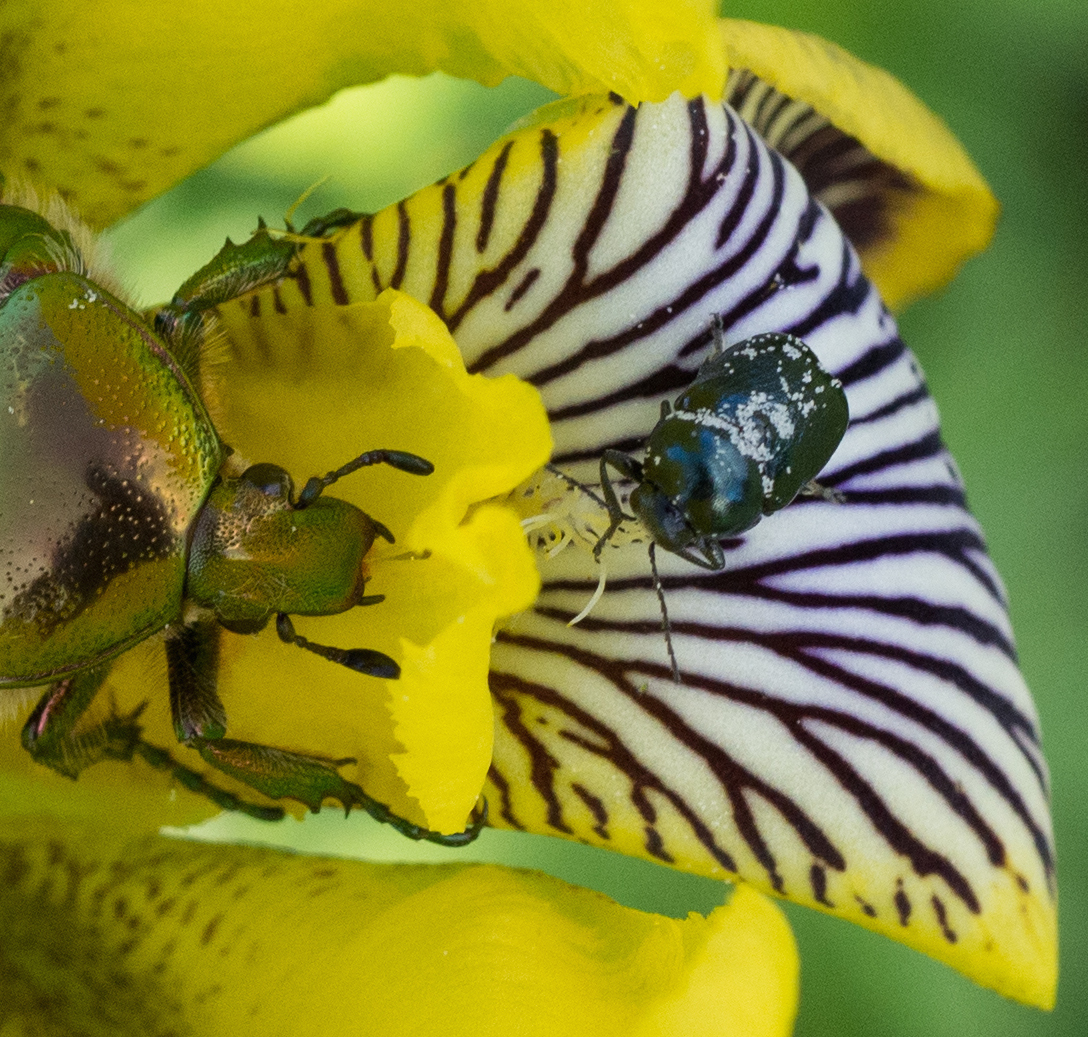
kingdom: Animalia
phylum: Arthropoda
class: Insecta
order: Coleoptera
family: Chrysomelidae
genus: Cryptocephalus
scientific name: Cryptocephalus
